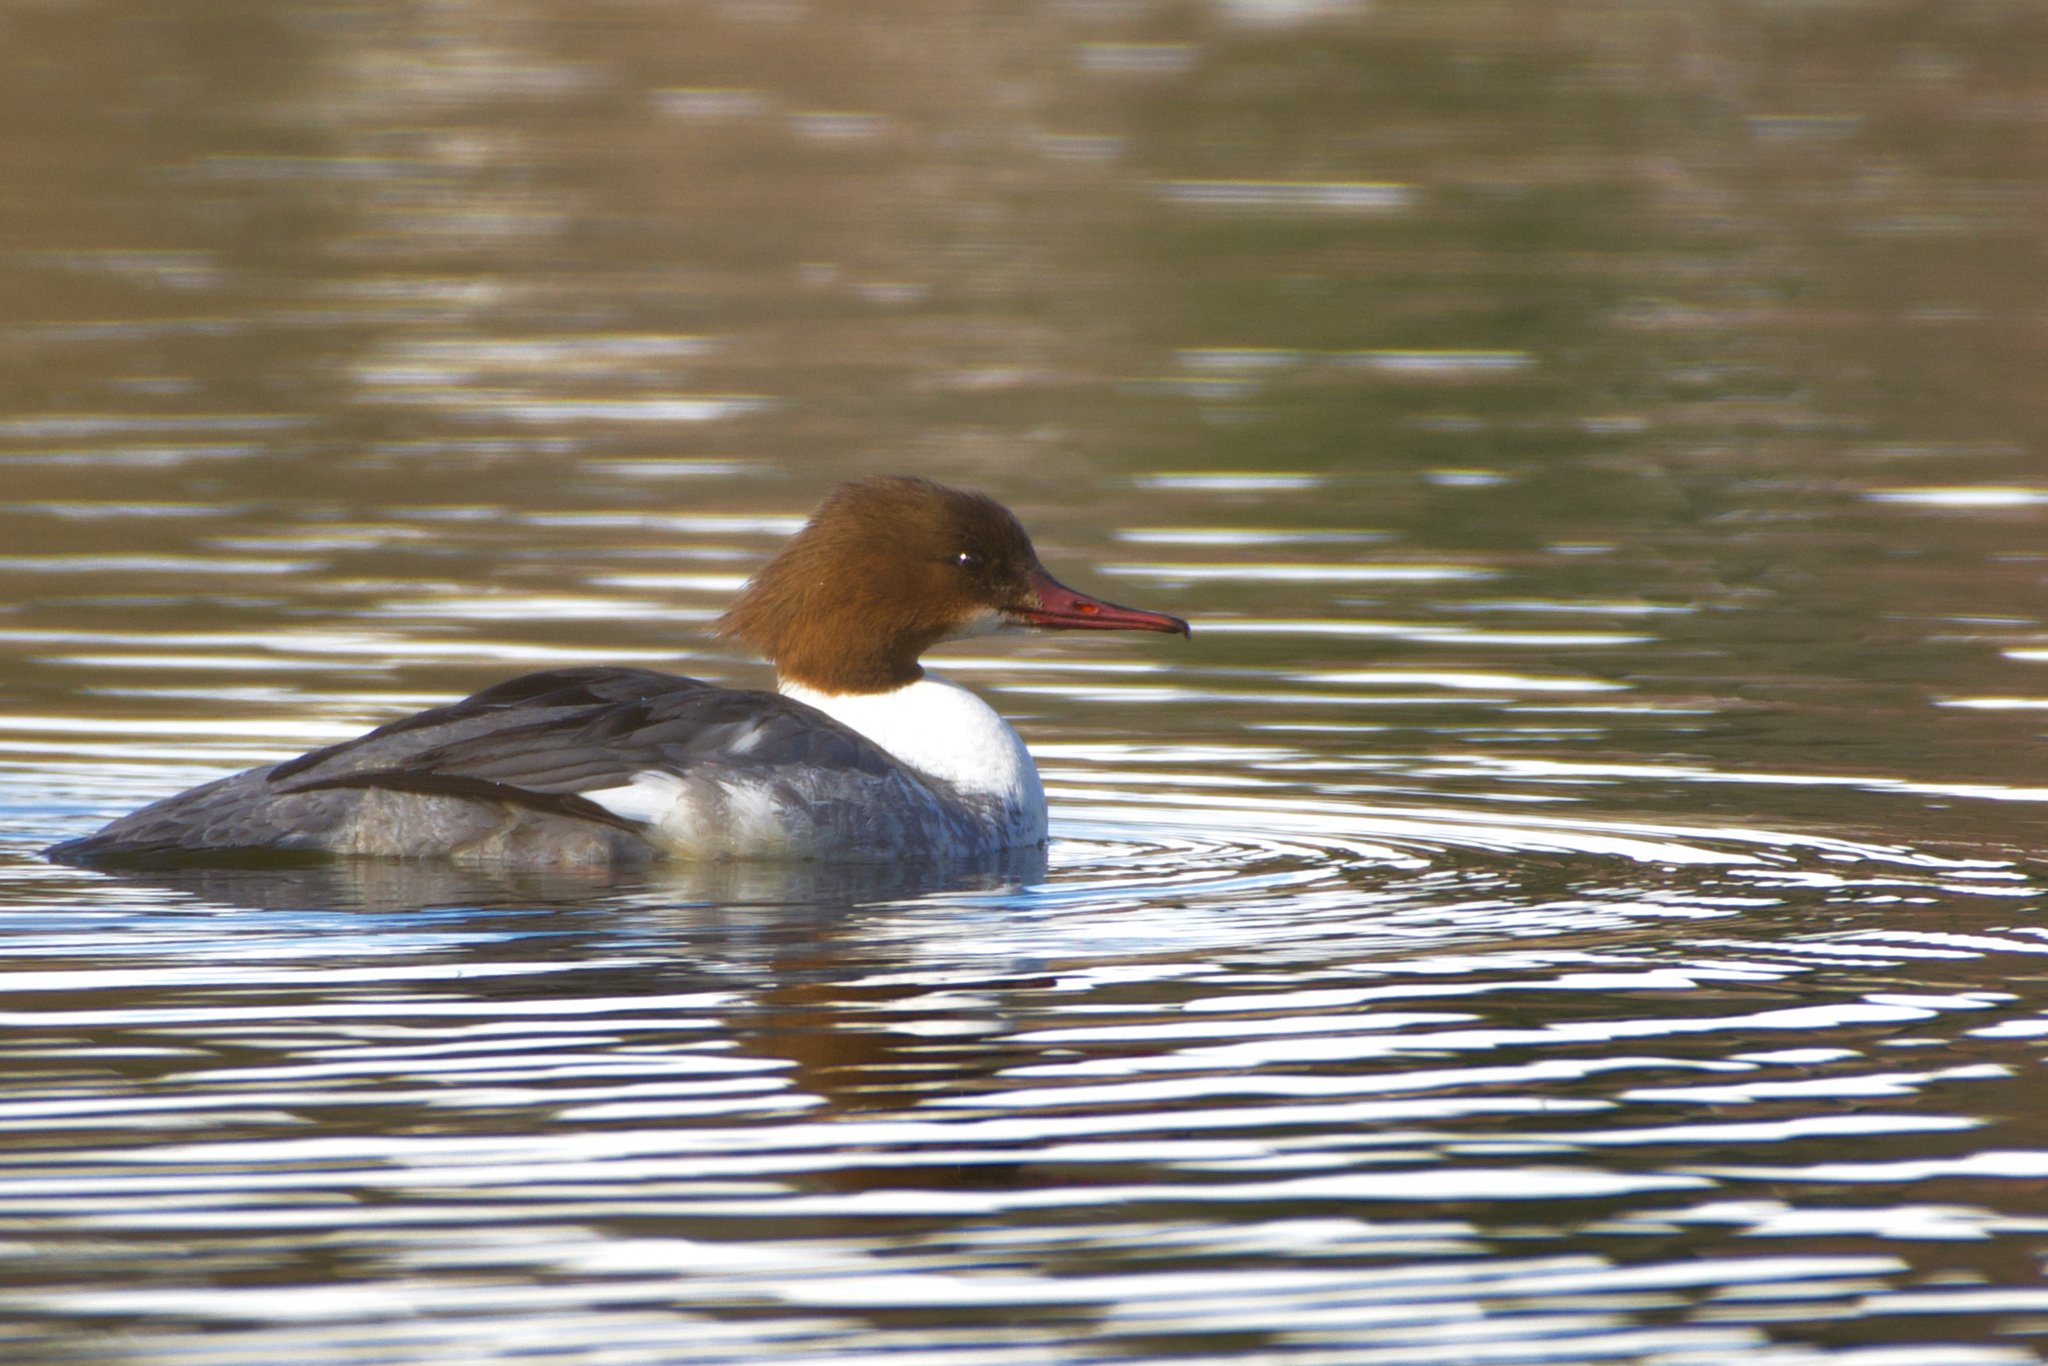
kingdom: Animalia
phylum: Chordata
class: Aves
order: Anseriformes
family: Anatidae
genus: Mergus
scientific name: Mergus merganser
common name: Common merganser
